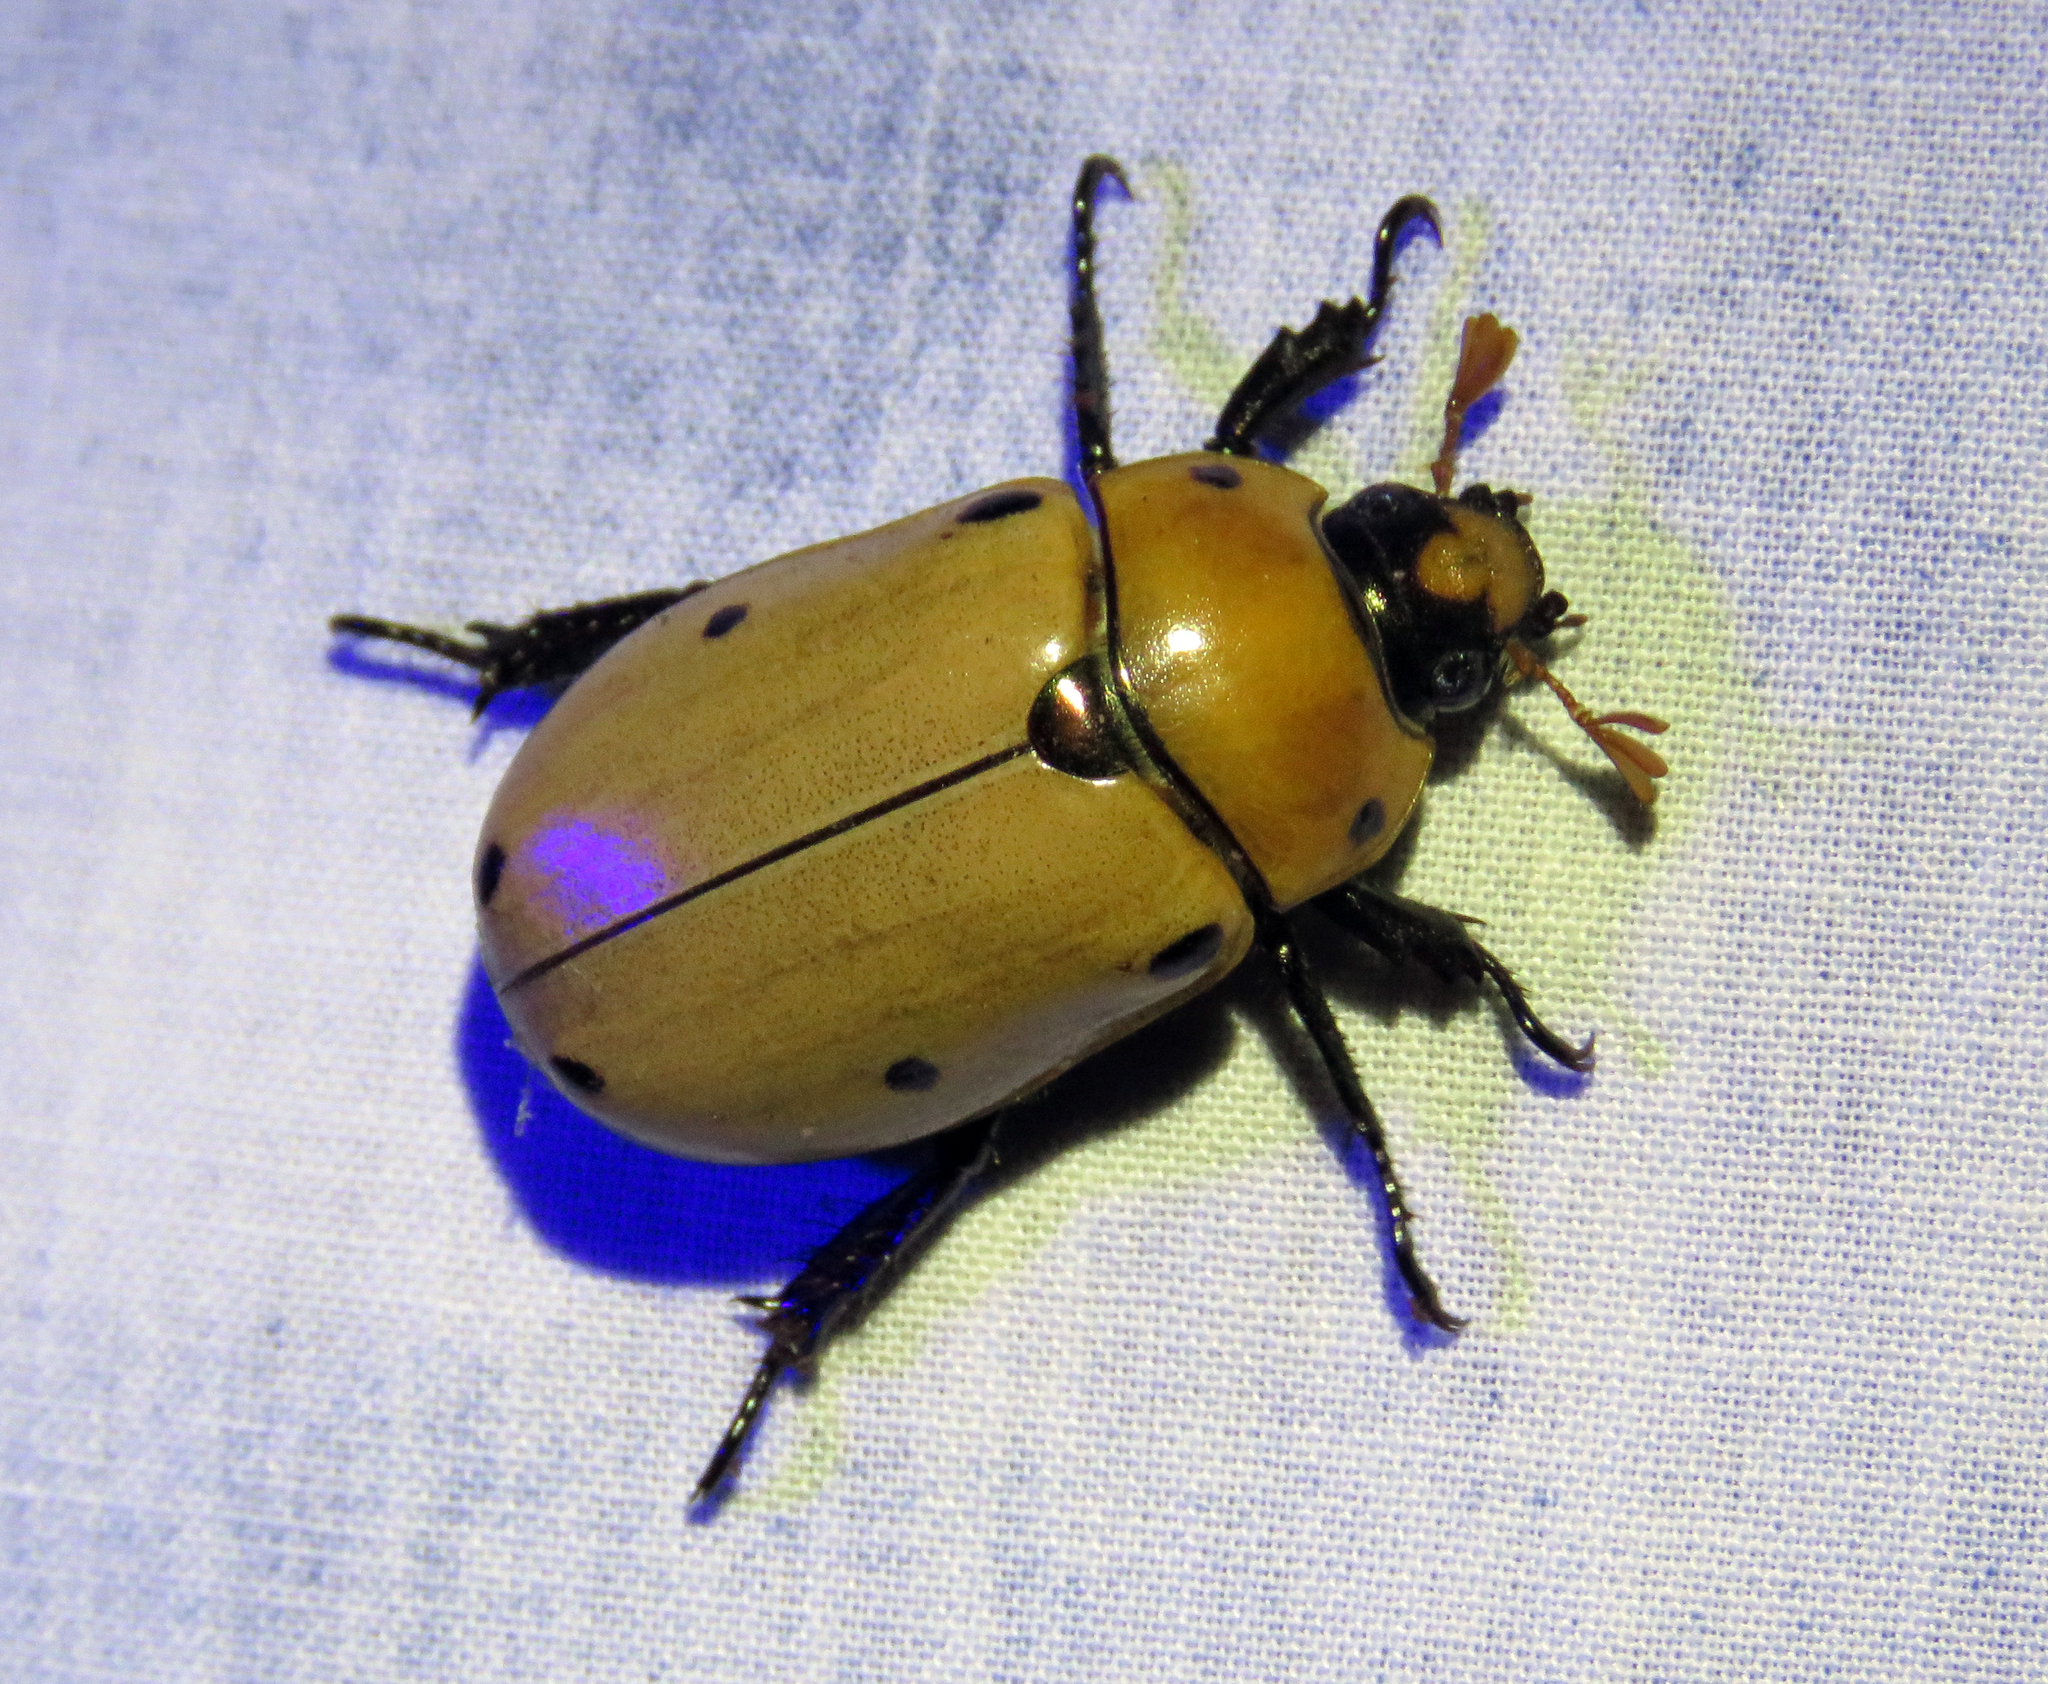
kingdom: Animalia
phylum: Arthropoda
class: Insecta
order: Coleoptera
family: Scarabaeidae
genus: Pelidnota
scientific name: Pelidnota punctata
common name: Grapevine beetle
